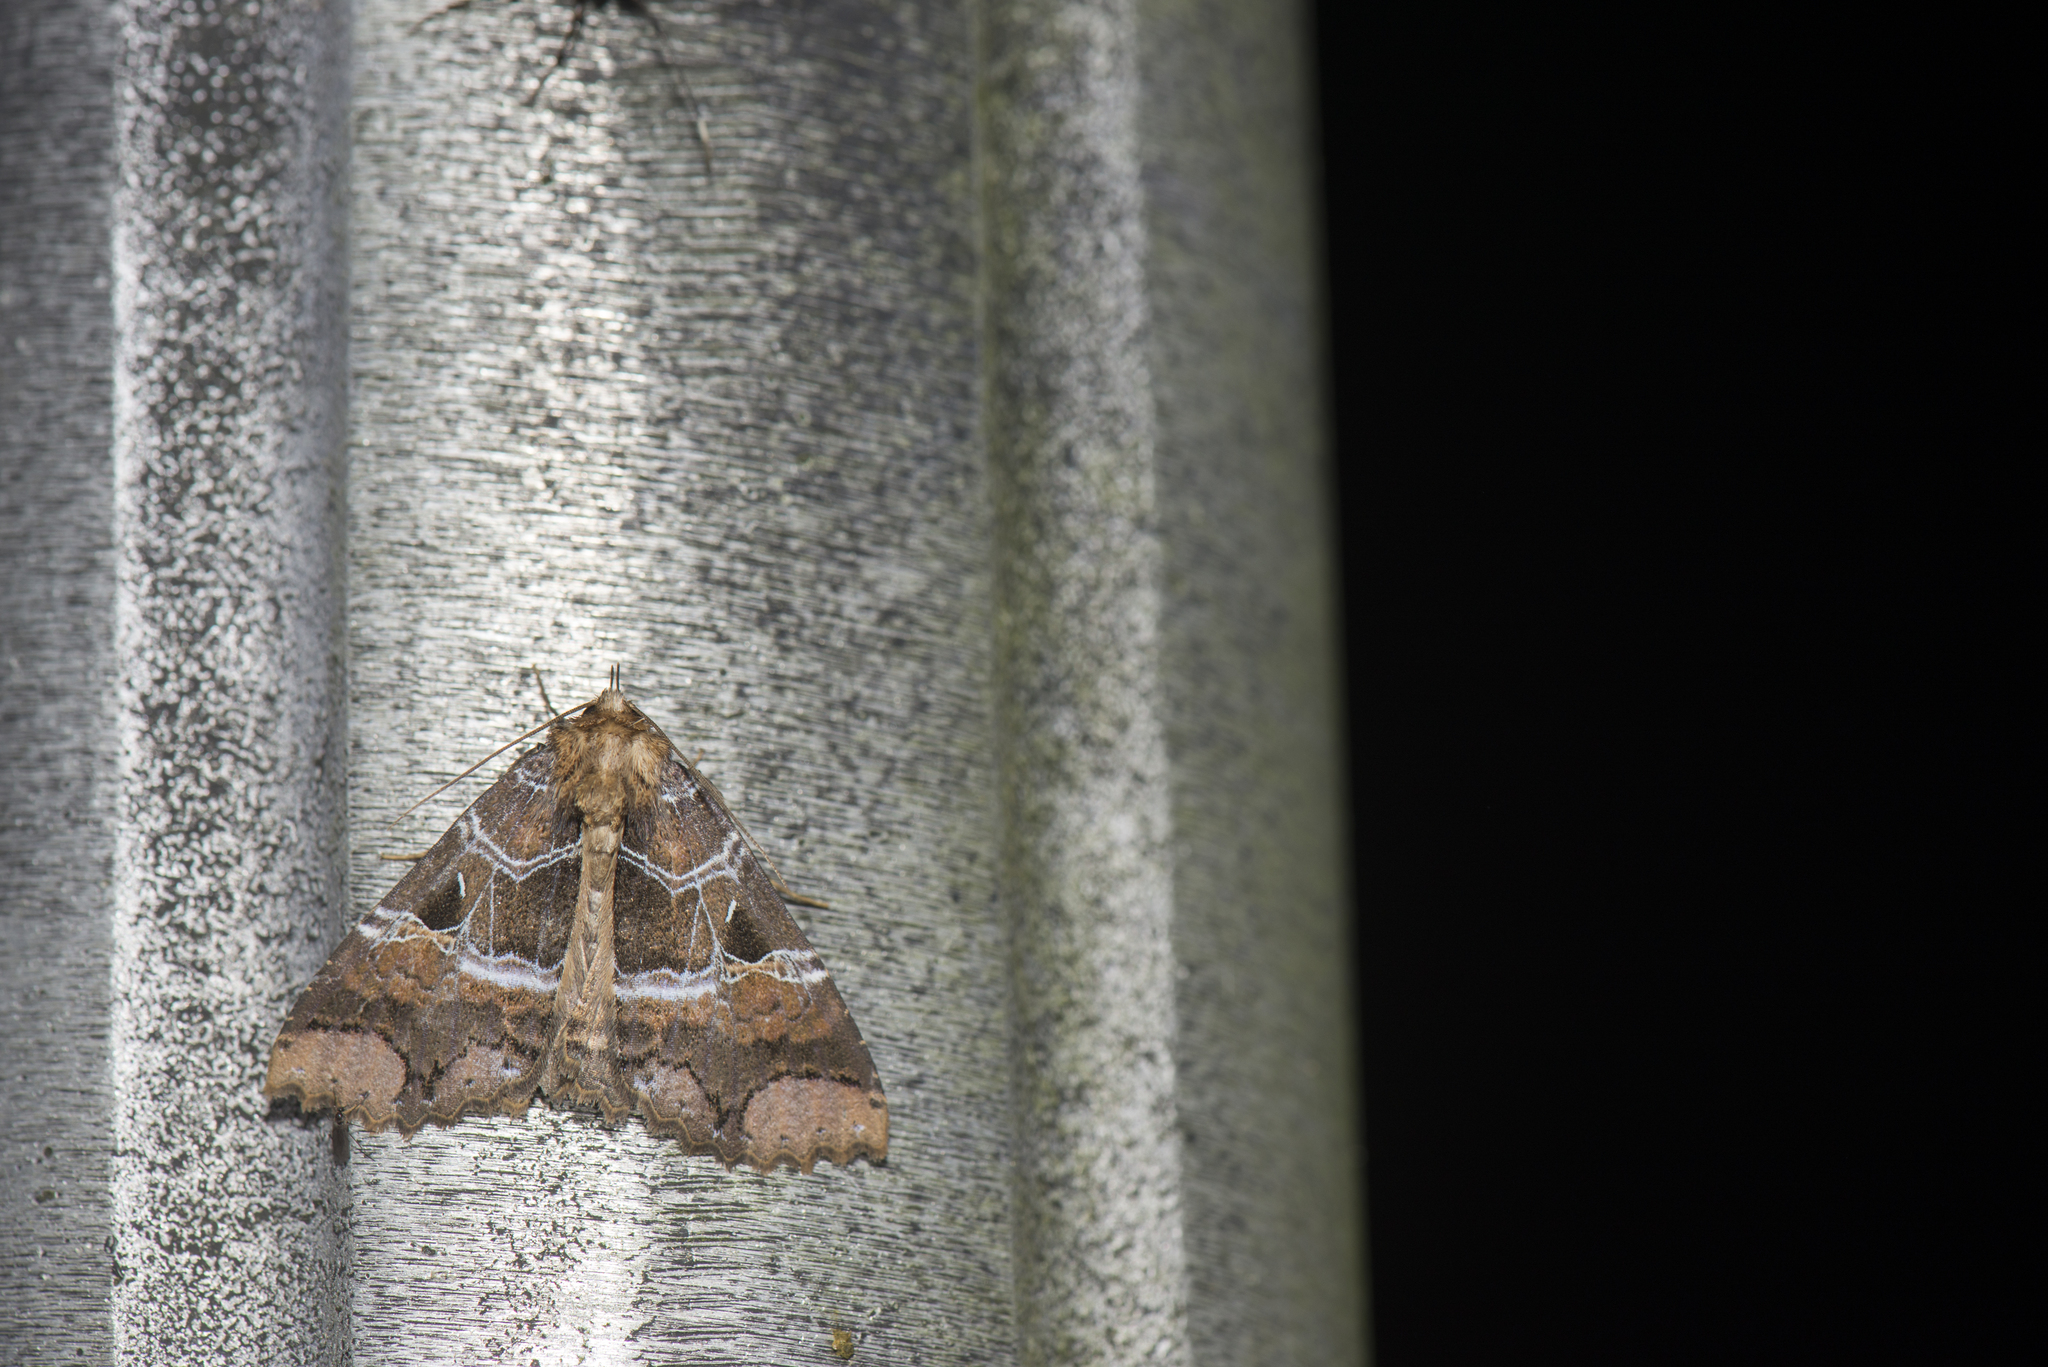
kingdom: Animalia
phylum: Arthropoda
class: Insecta
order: Lepidoptera
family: Erebidae
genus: Sypnoides
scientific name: Sypnoides chinensis
